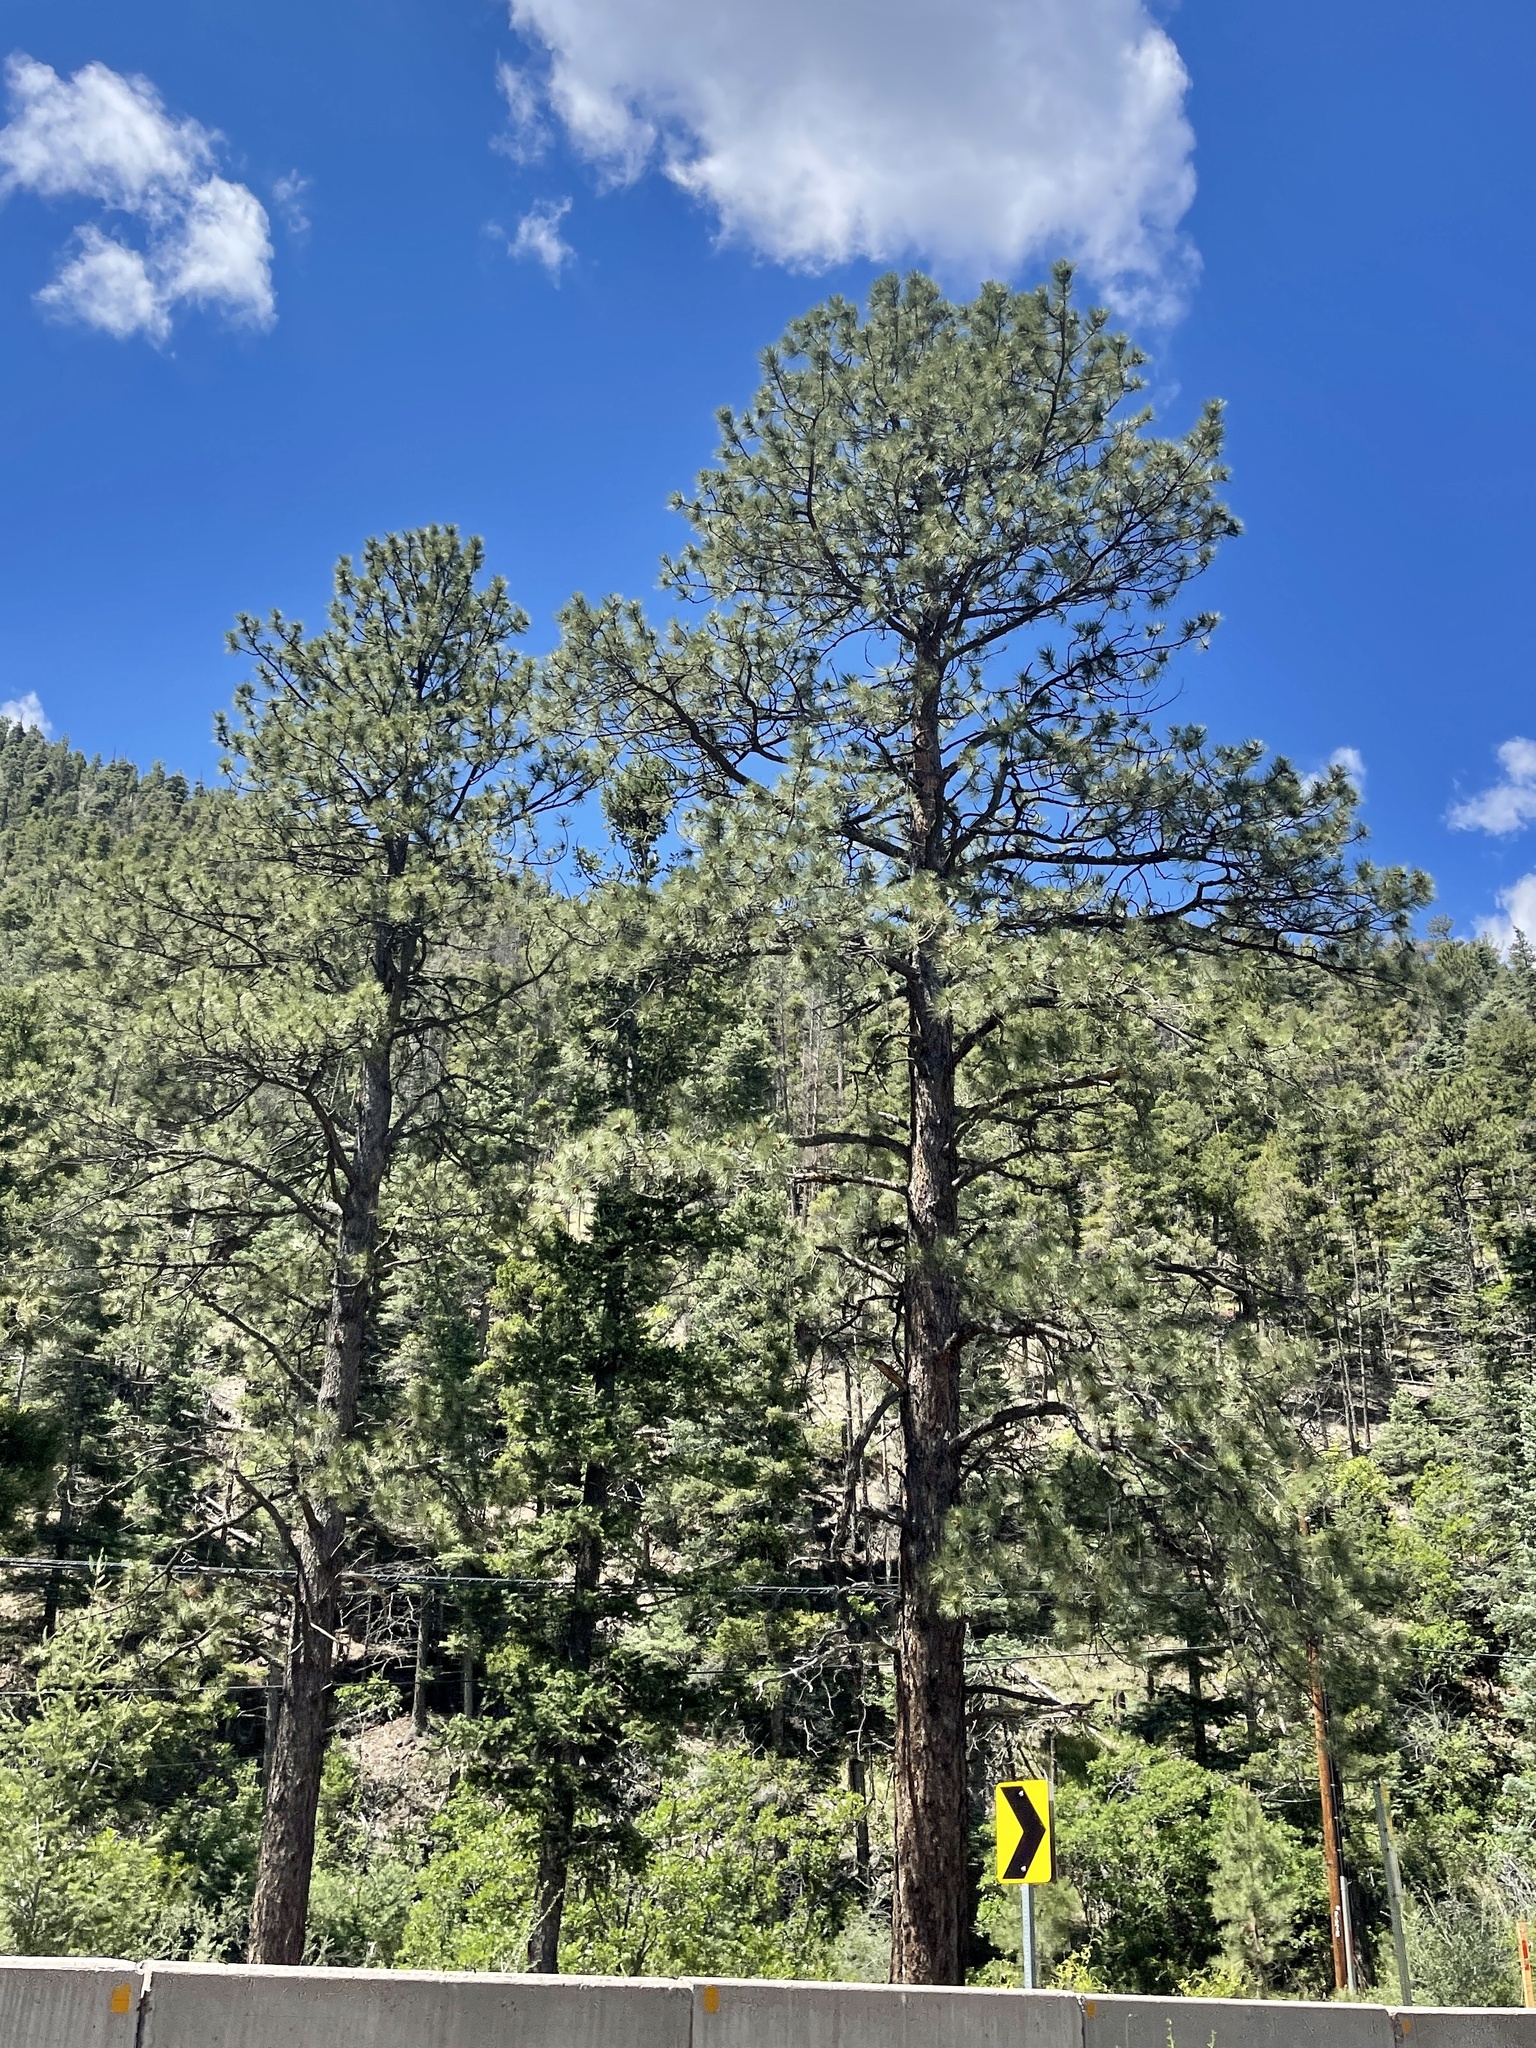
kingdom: Plantae
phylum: Tracheophyta
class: Pinopsida
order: Pinales
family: Pinaceae
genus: Pinus
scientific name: Pinus ponderosa
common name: Western yellow-pine
